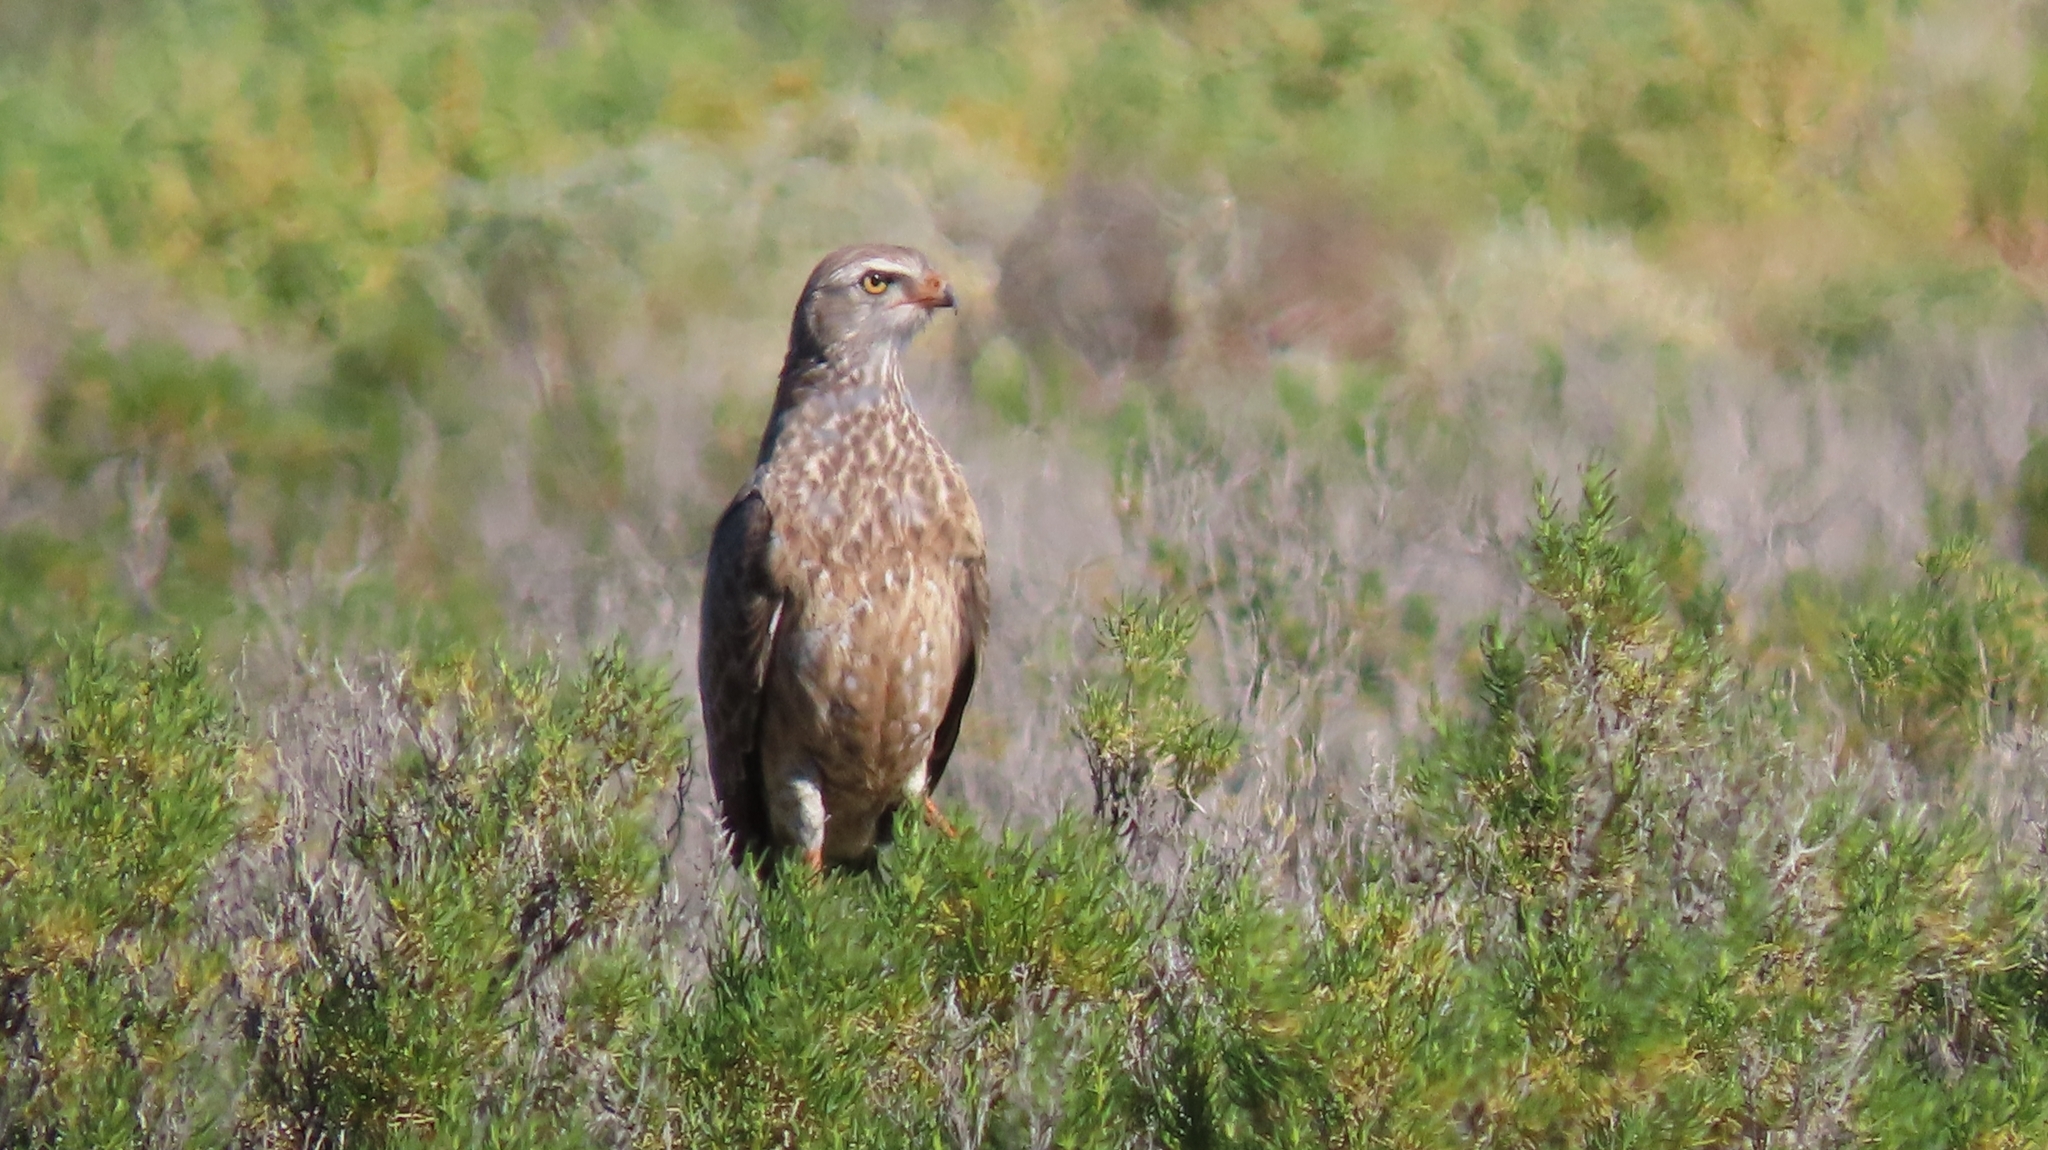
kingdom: Animalia
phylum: Chordata
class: Aves
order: Accipitriformes
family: Accipitridae
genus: Melierax
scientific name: Melierax canorus
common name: Pale chanting-goshawk
